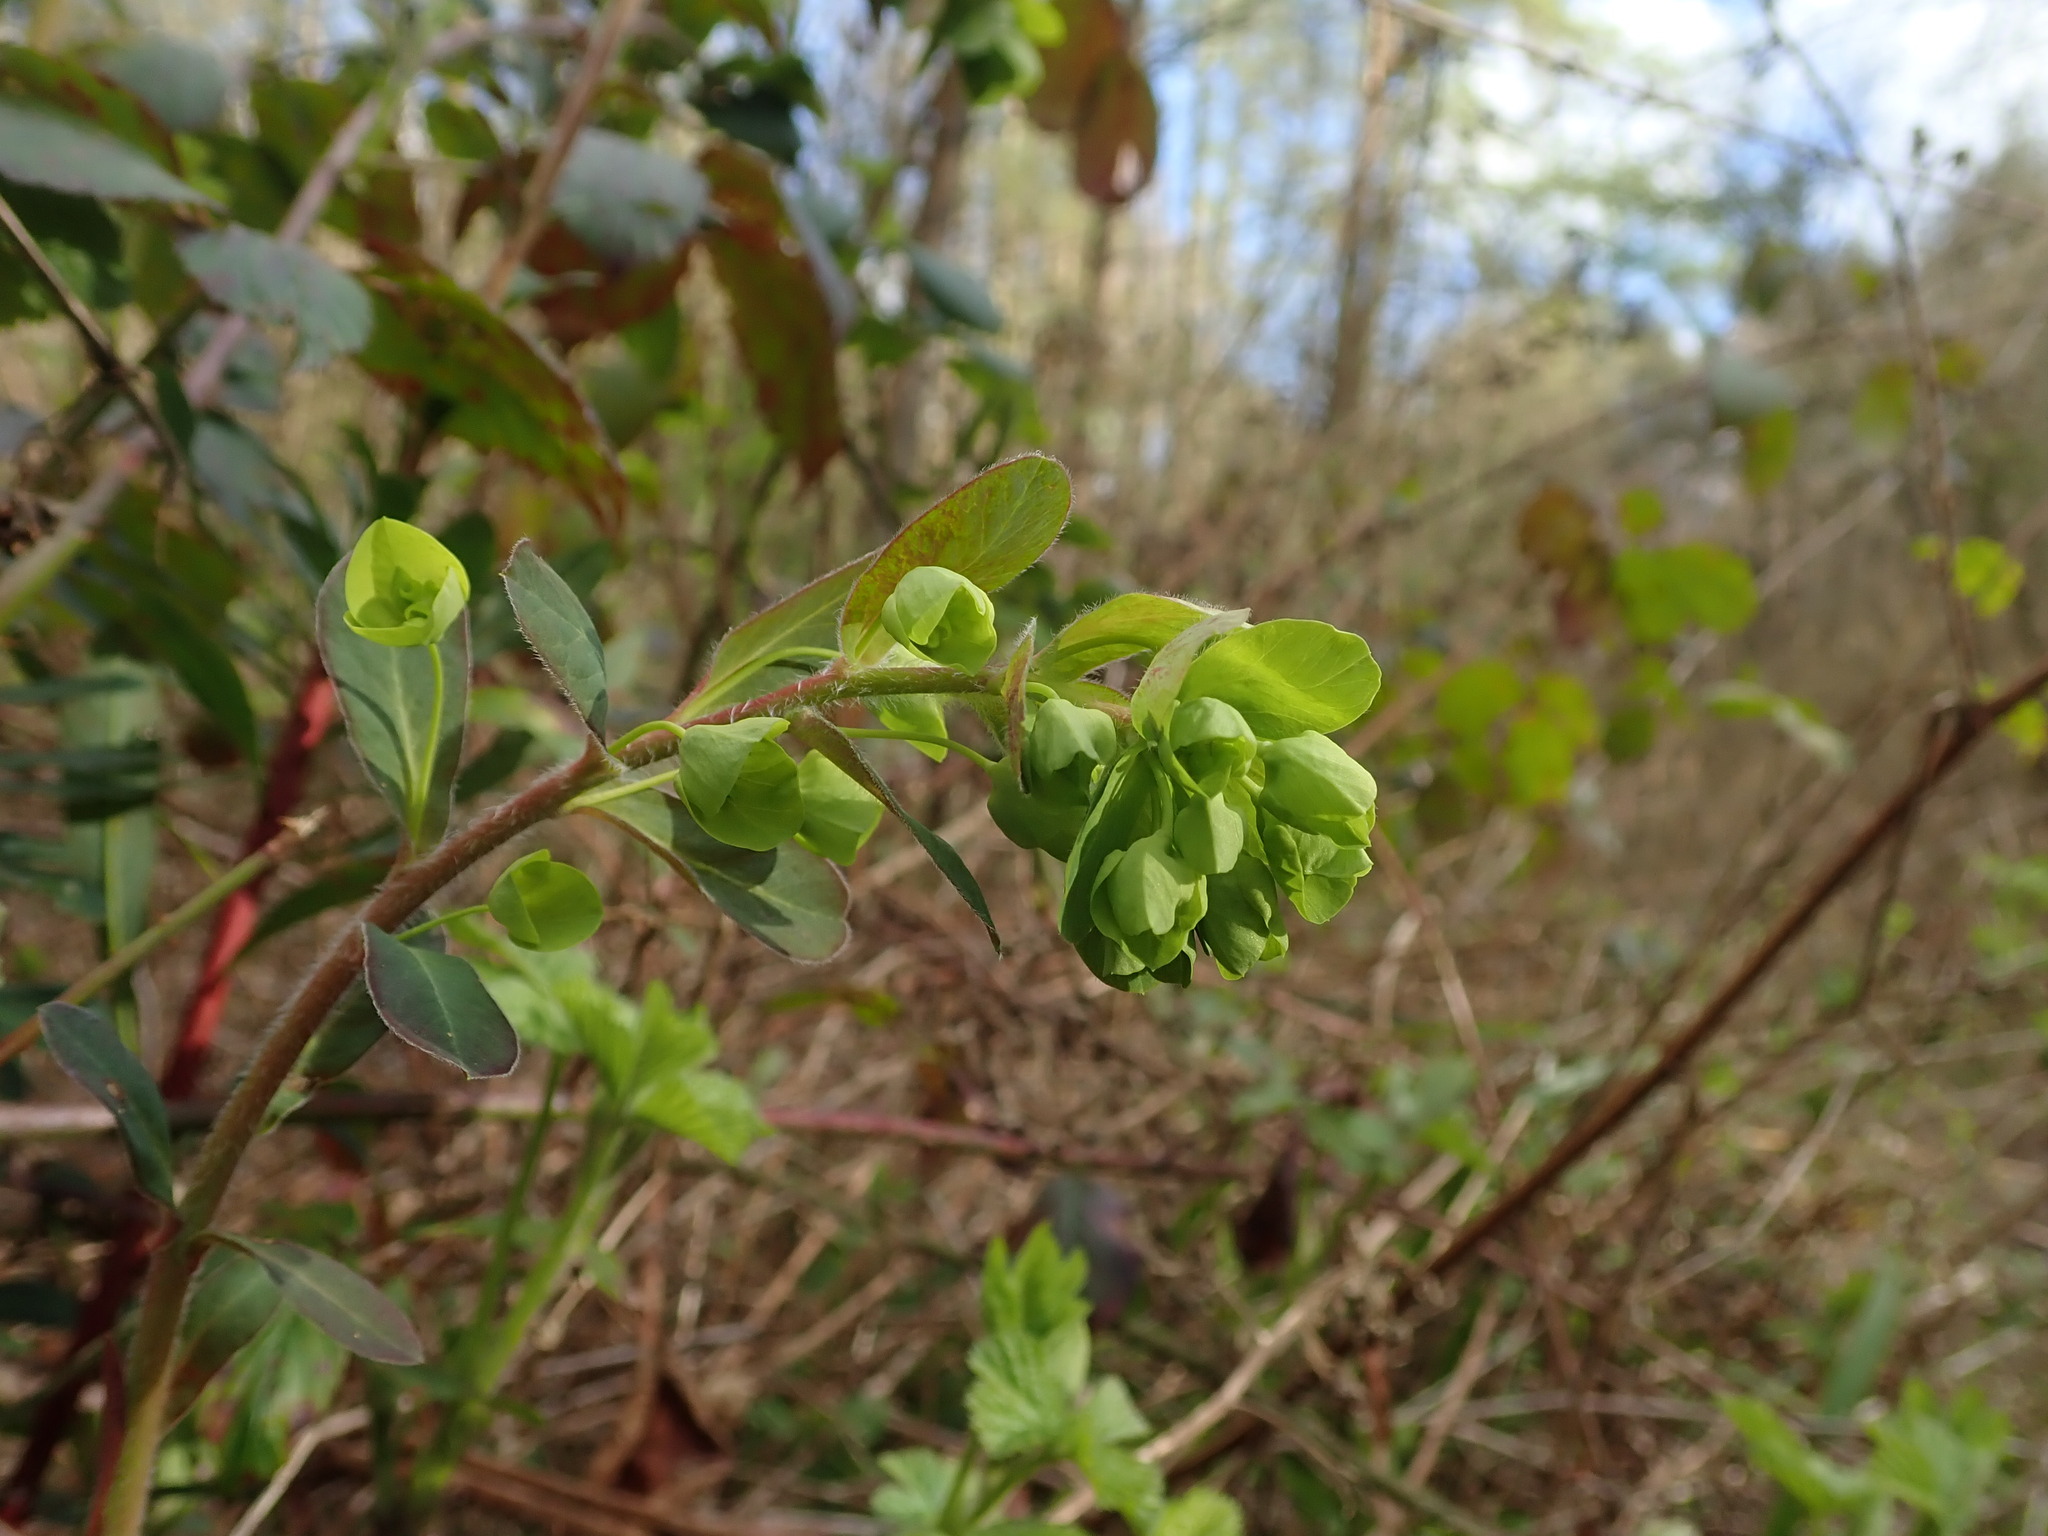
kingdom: Plantae
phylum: Tracheophyta
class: Magnoliopsida
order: Malpighiales
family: Euphorbiaceae
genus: Euphorbia
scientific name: Euphorbia amygdaloides
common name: Wood spurge
